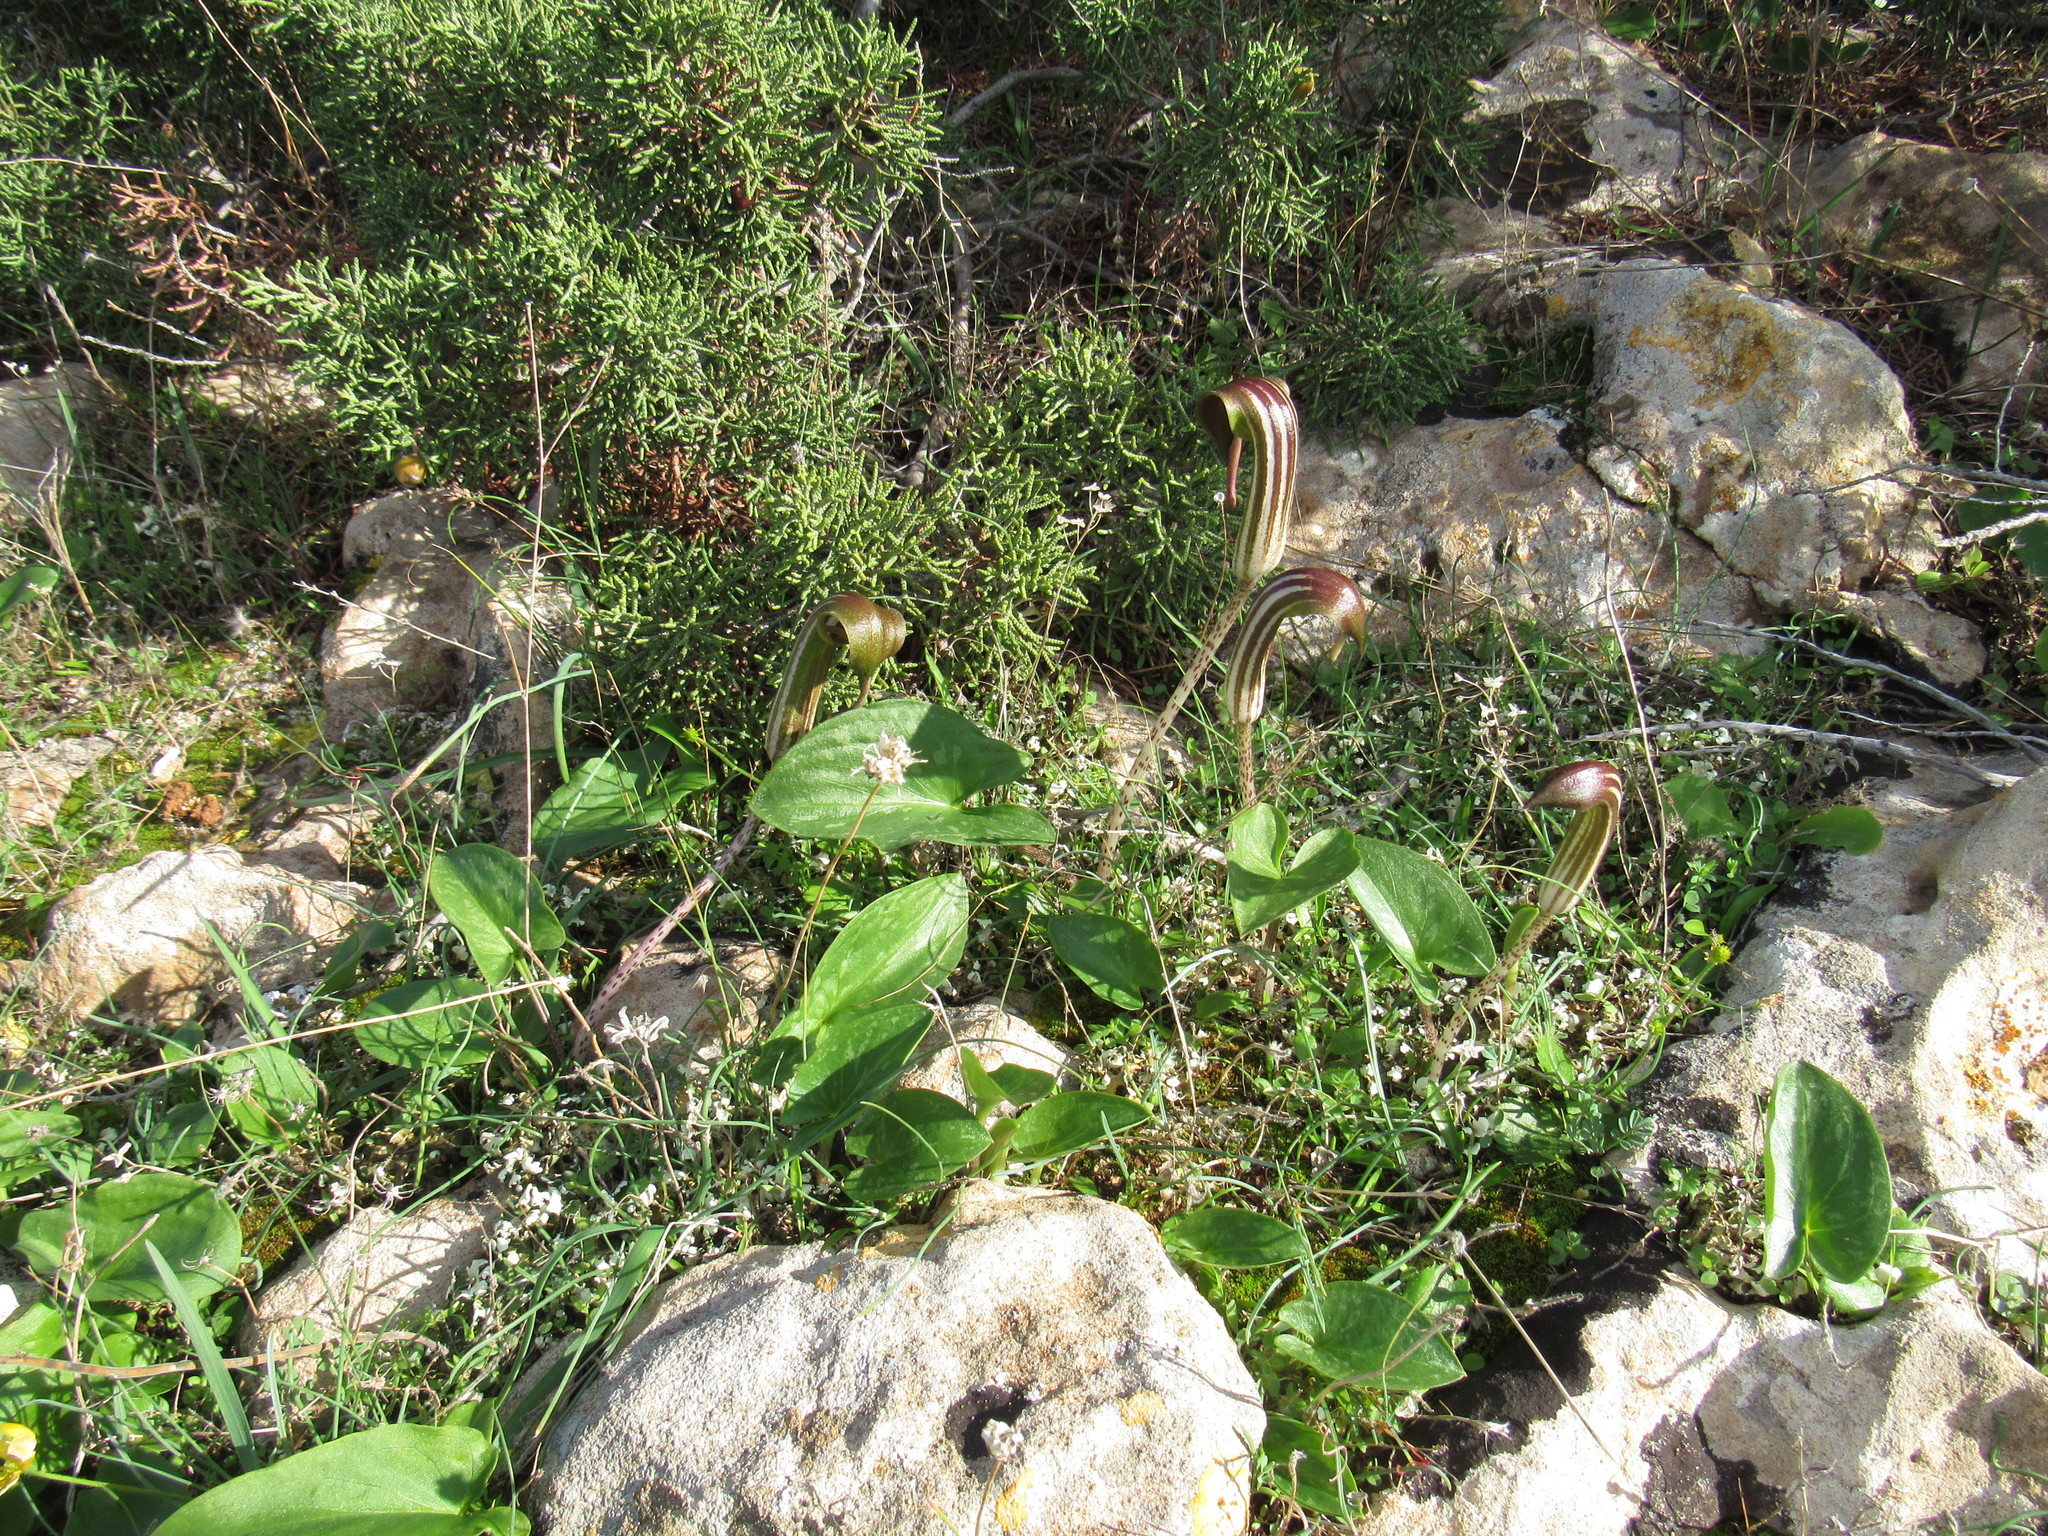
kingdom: Plantae
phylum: Tracheophyta
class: Liliopsida
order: Alismatales
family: Araceae
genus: Arisarum
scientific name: Arisarum vulgare
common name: Common arisarum
